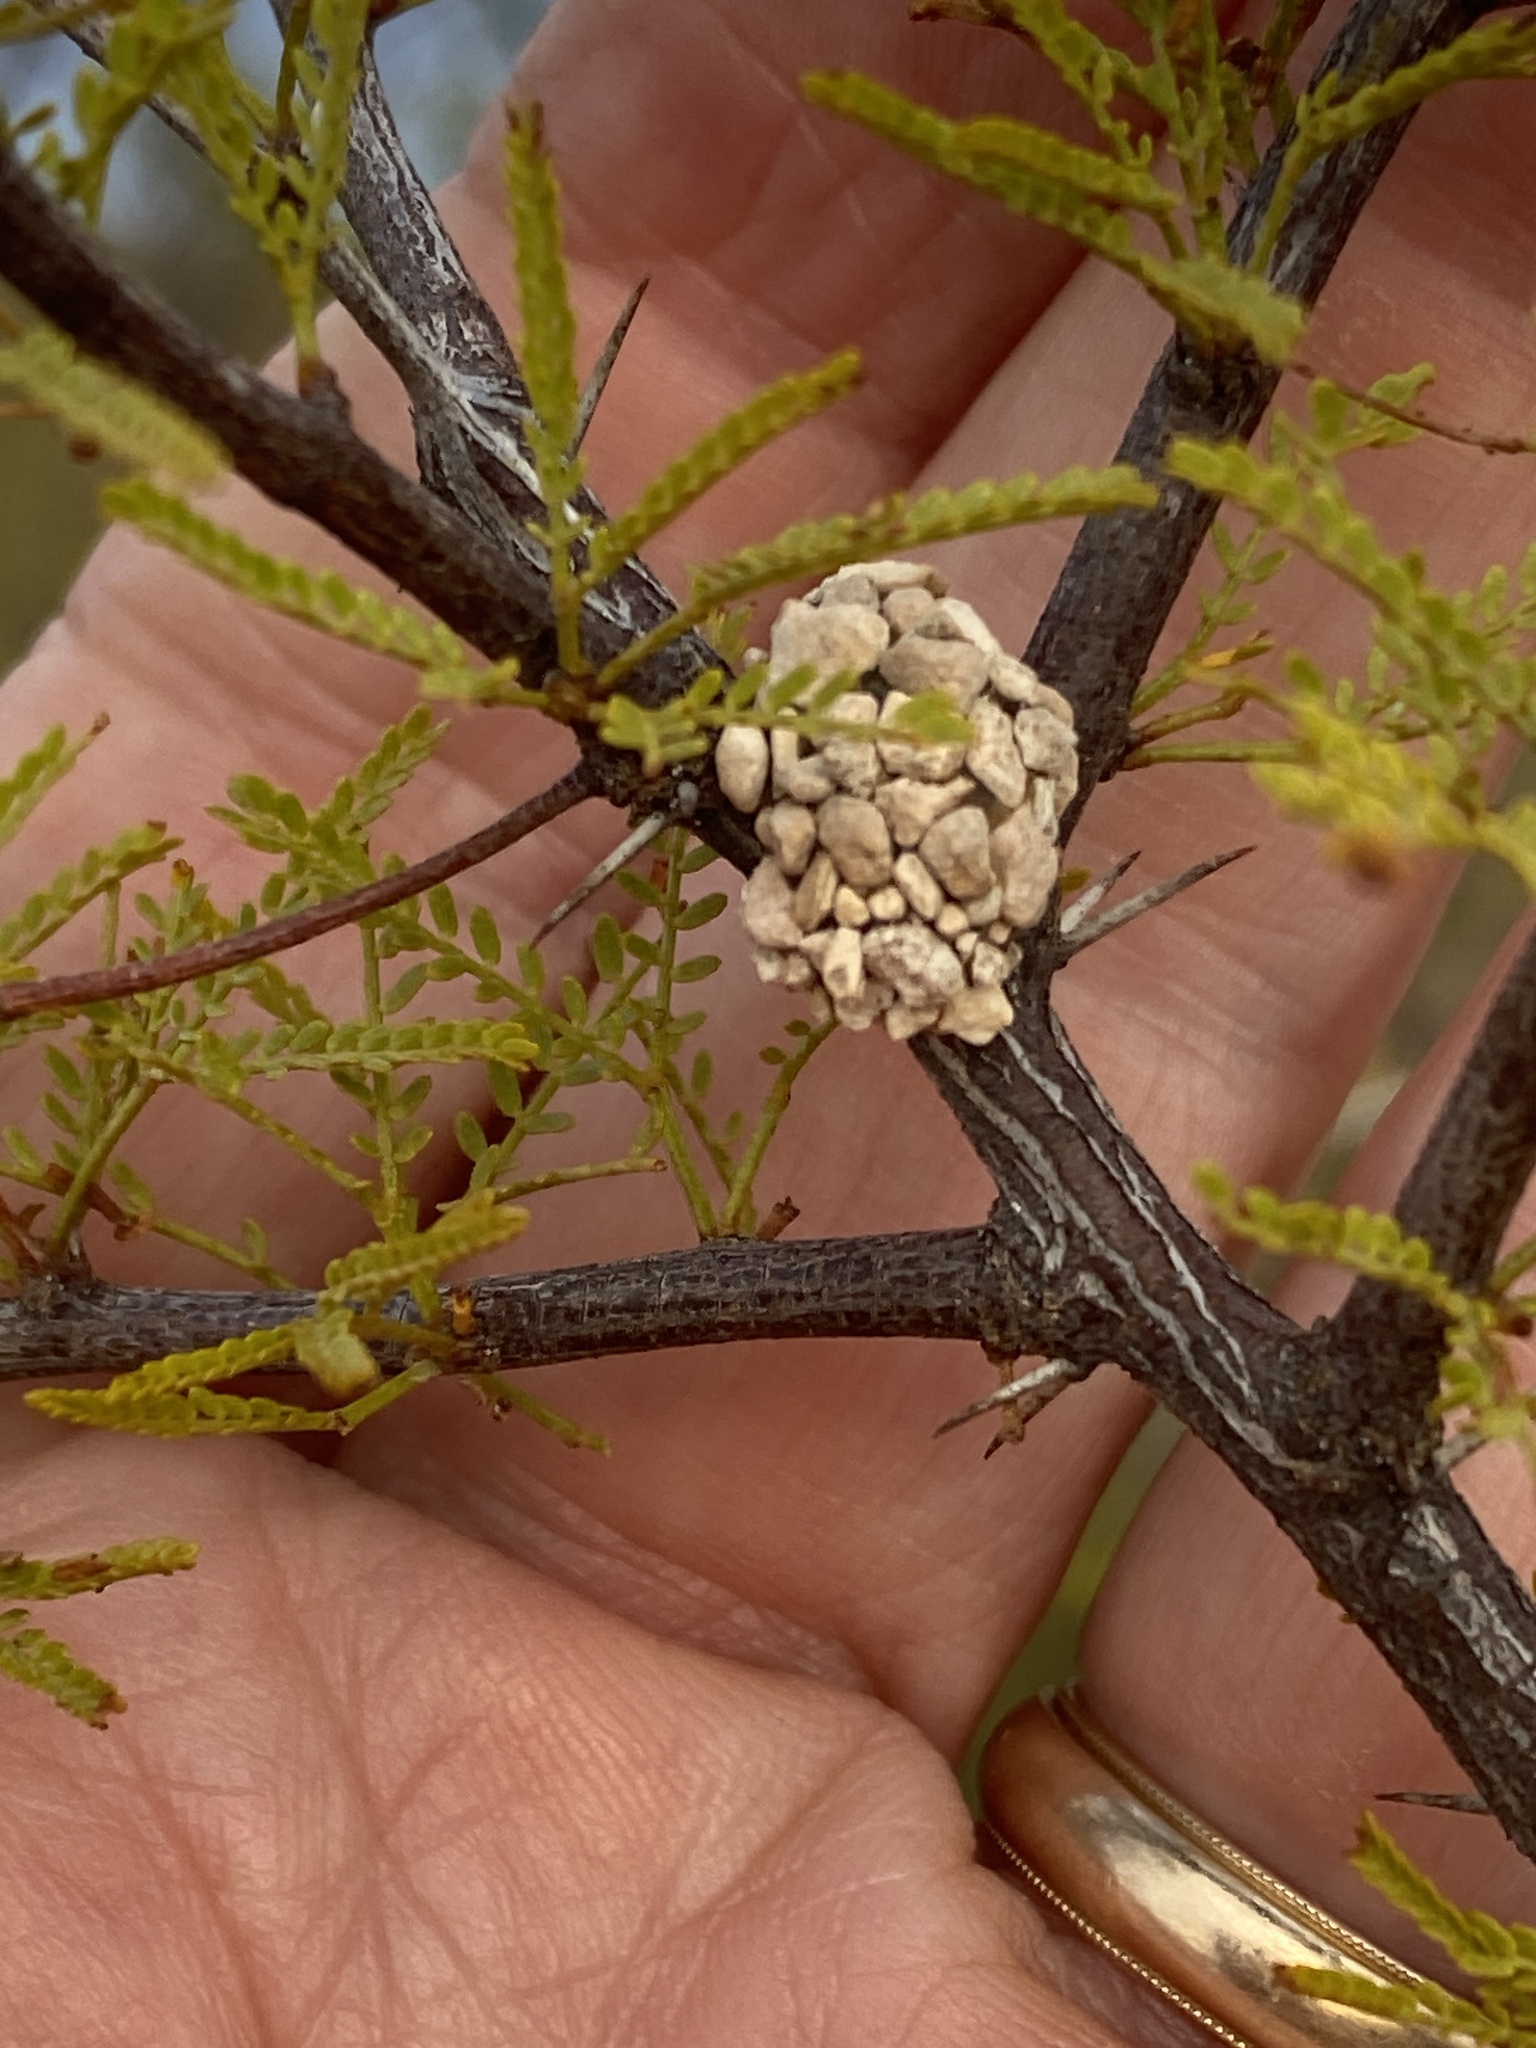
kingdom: Animalia
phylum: Arthropoda
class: Insecta
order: Hymenoptera
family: Megachilidae
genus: Dianthidium
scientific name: Dianthidium
